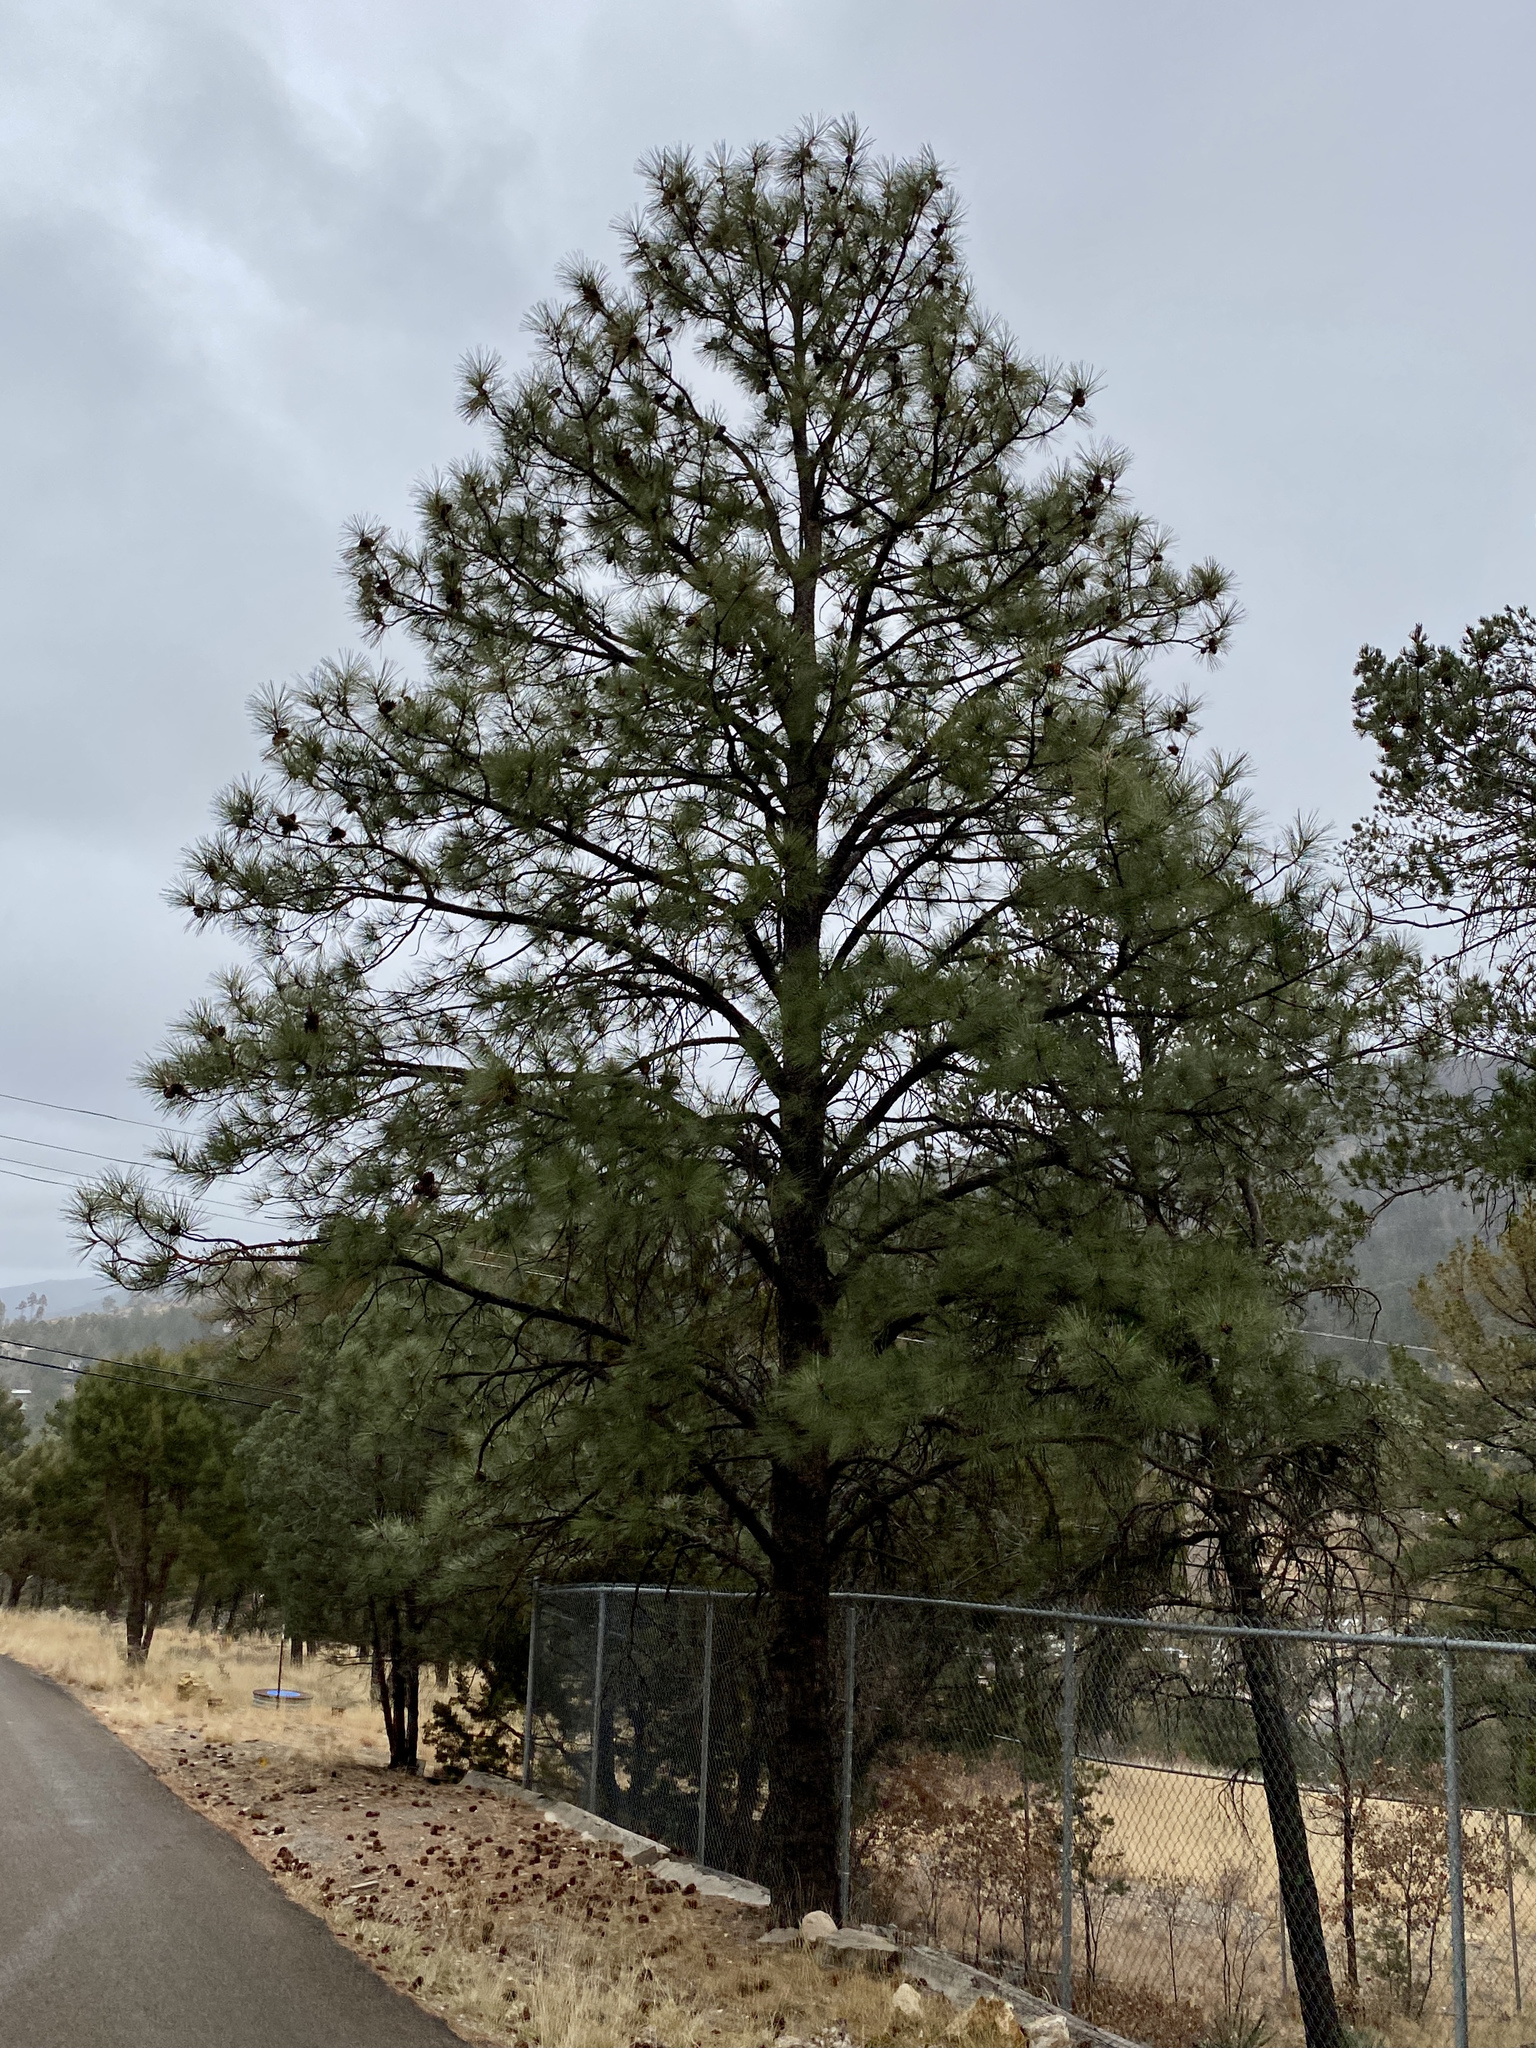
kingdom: Plantae
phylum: Tracheophyta
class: Pinopsida
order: Pinales
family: Pinaceae
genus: Pinus
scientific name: Pinus ponderosa
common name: Western yellow-pine
